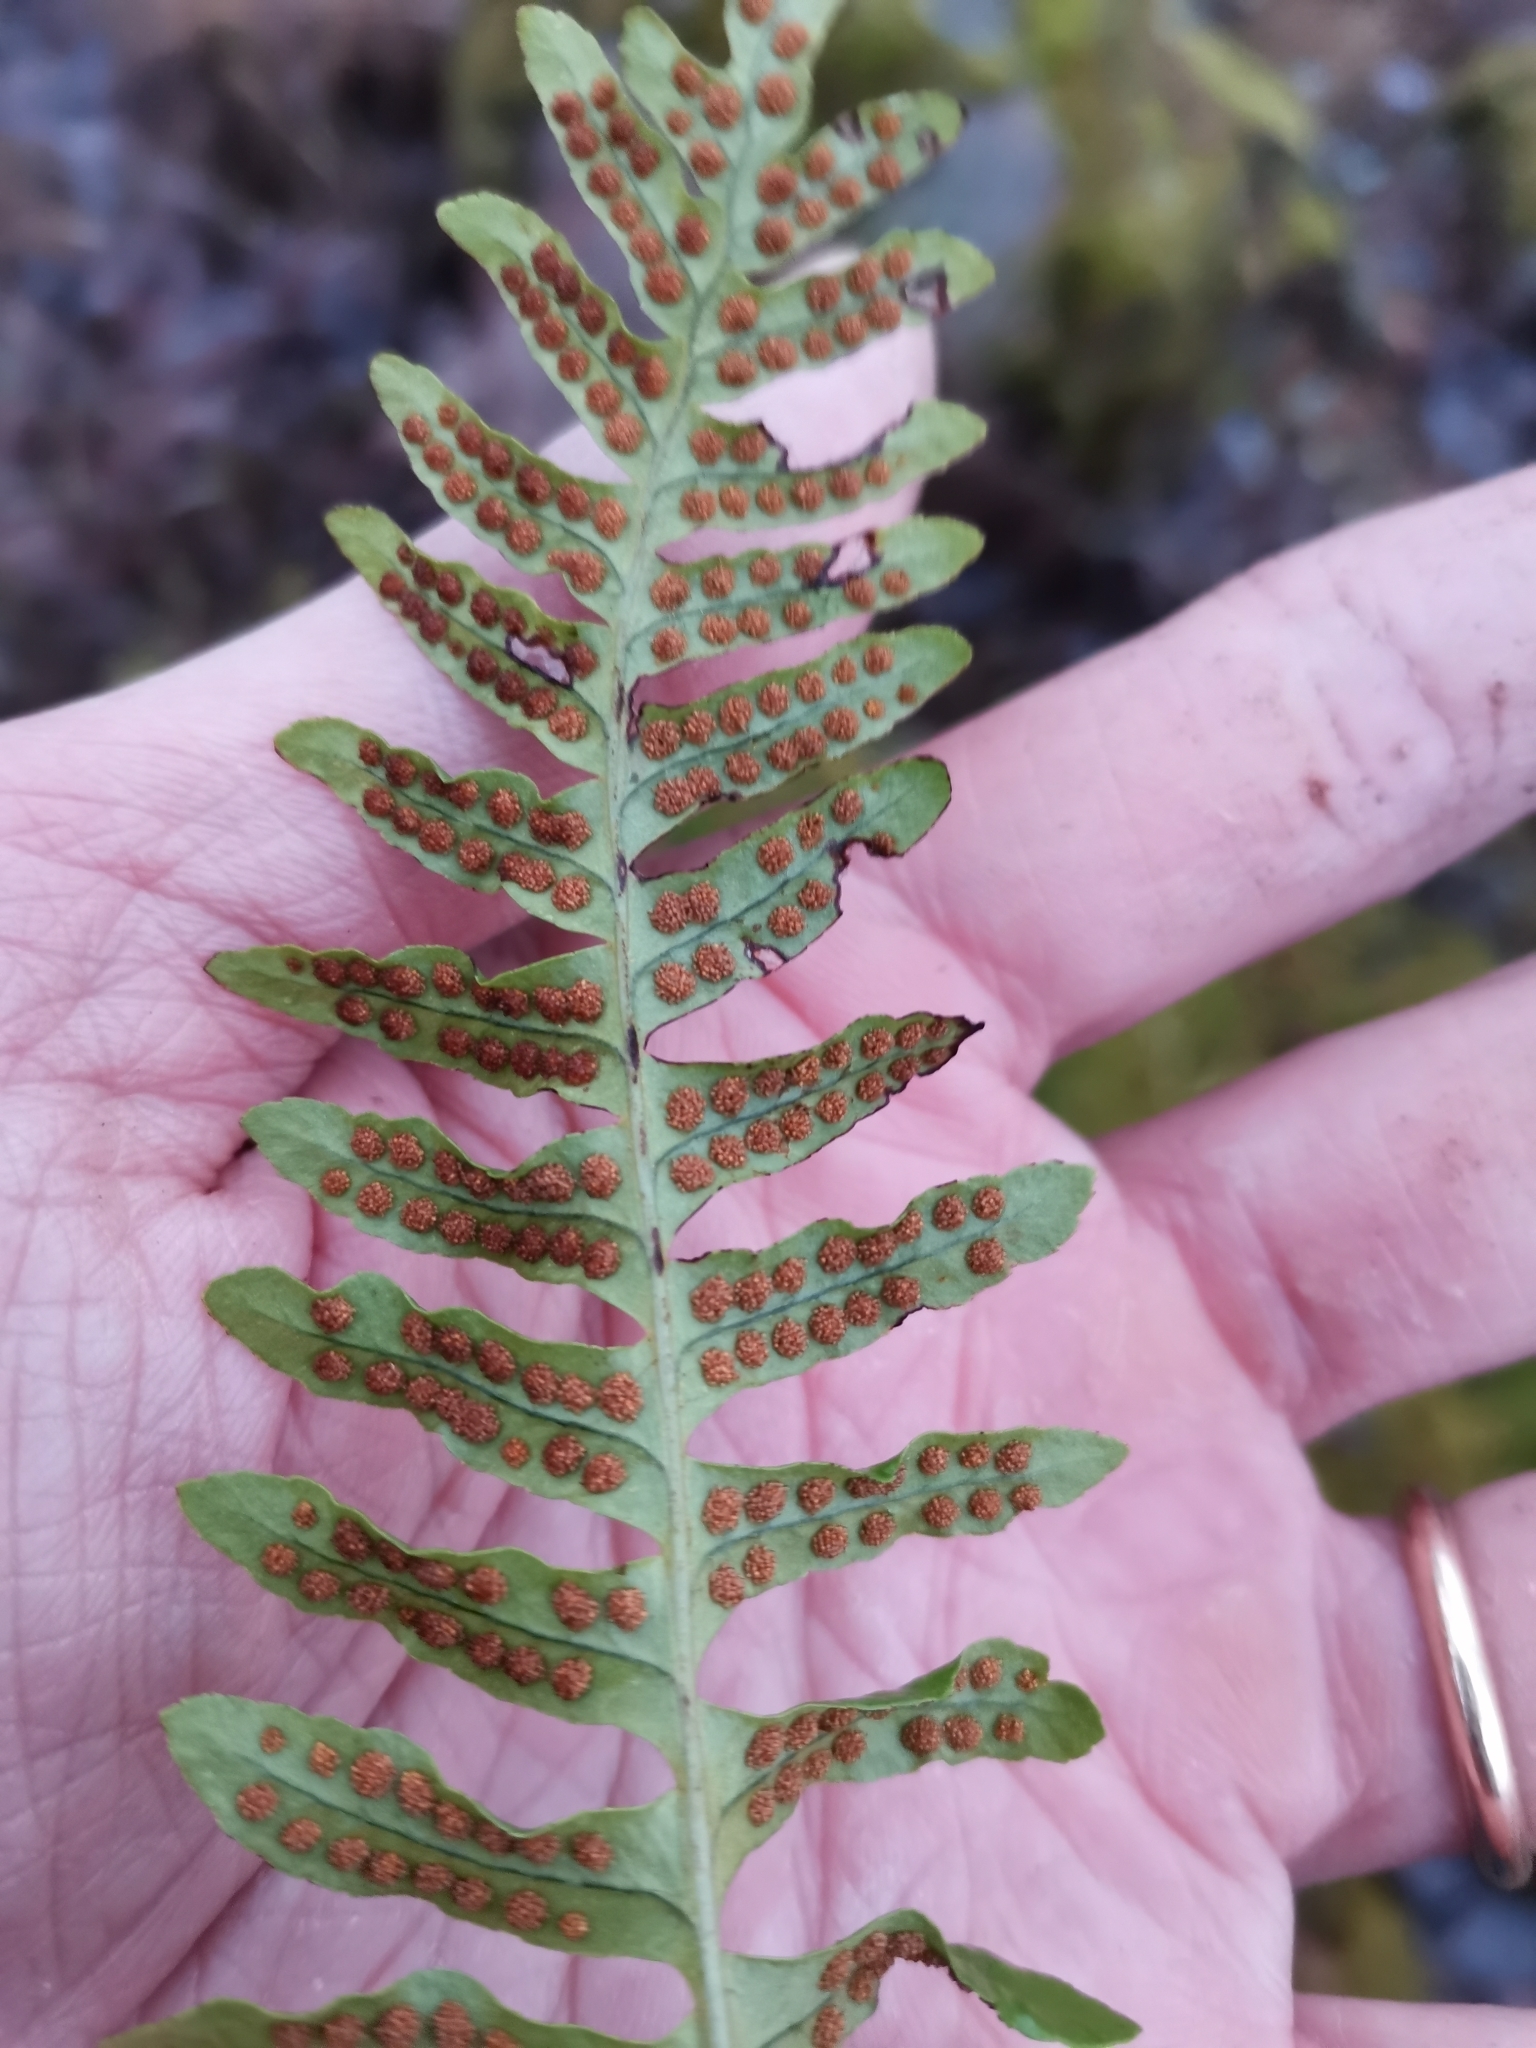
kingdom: Plantae
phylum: Tracheophyta
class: Polypodiopsida
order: Polypodiales
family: Polypodiaceae
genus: Polypodium
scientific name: Polypodium vulgare
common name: Common polypody
